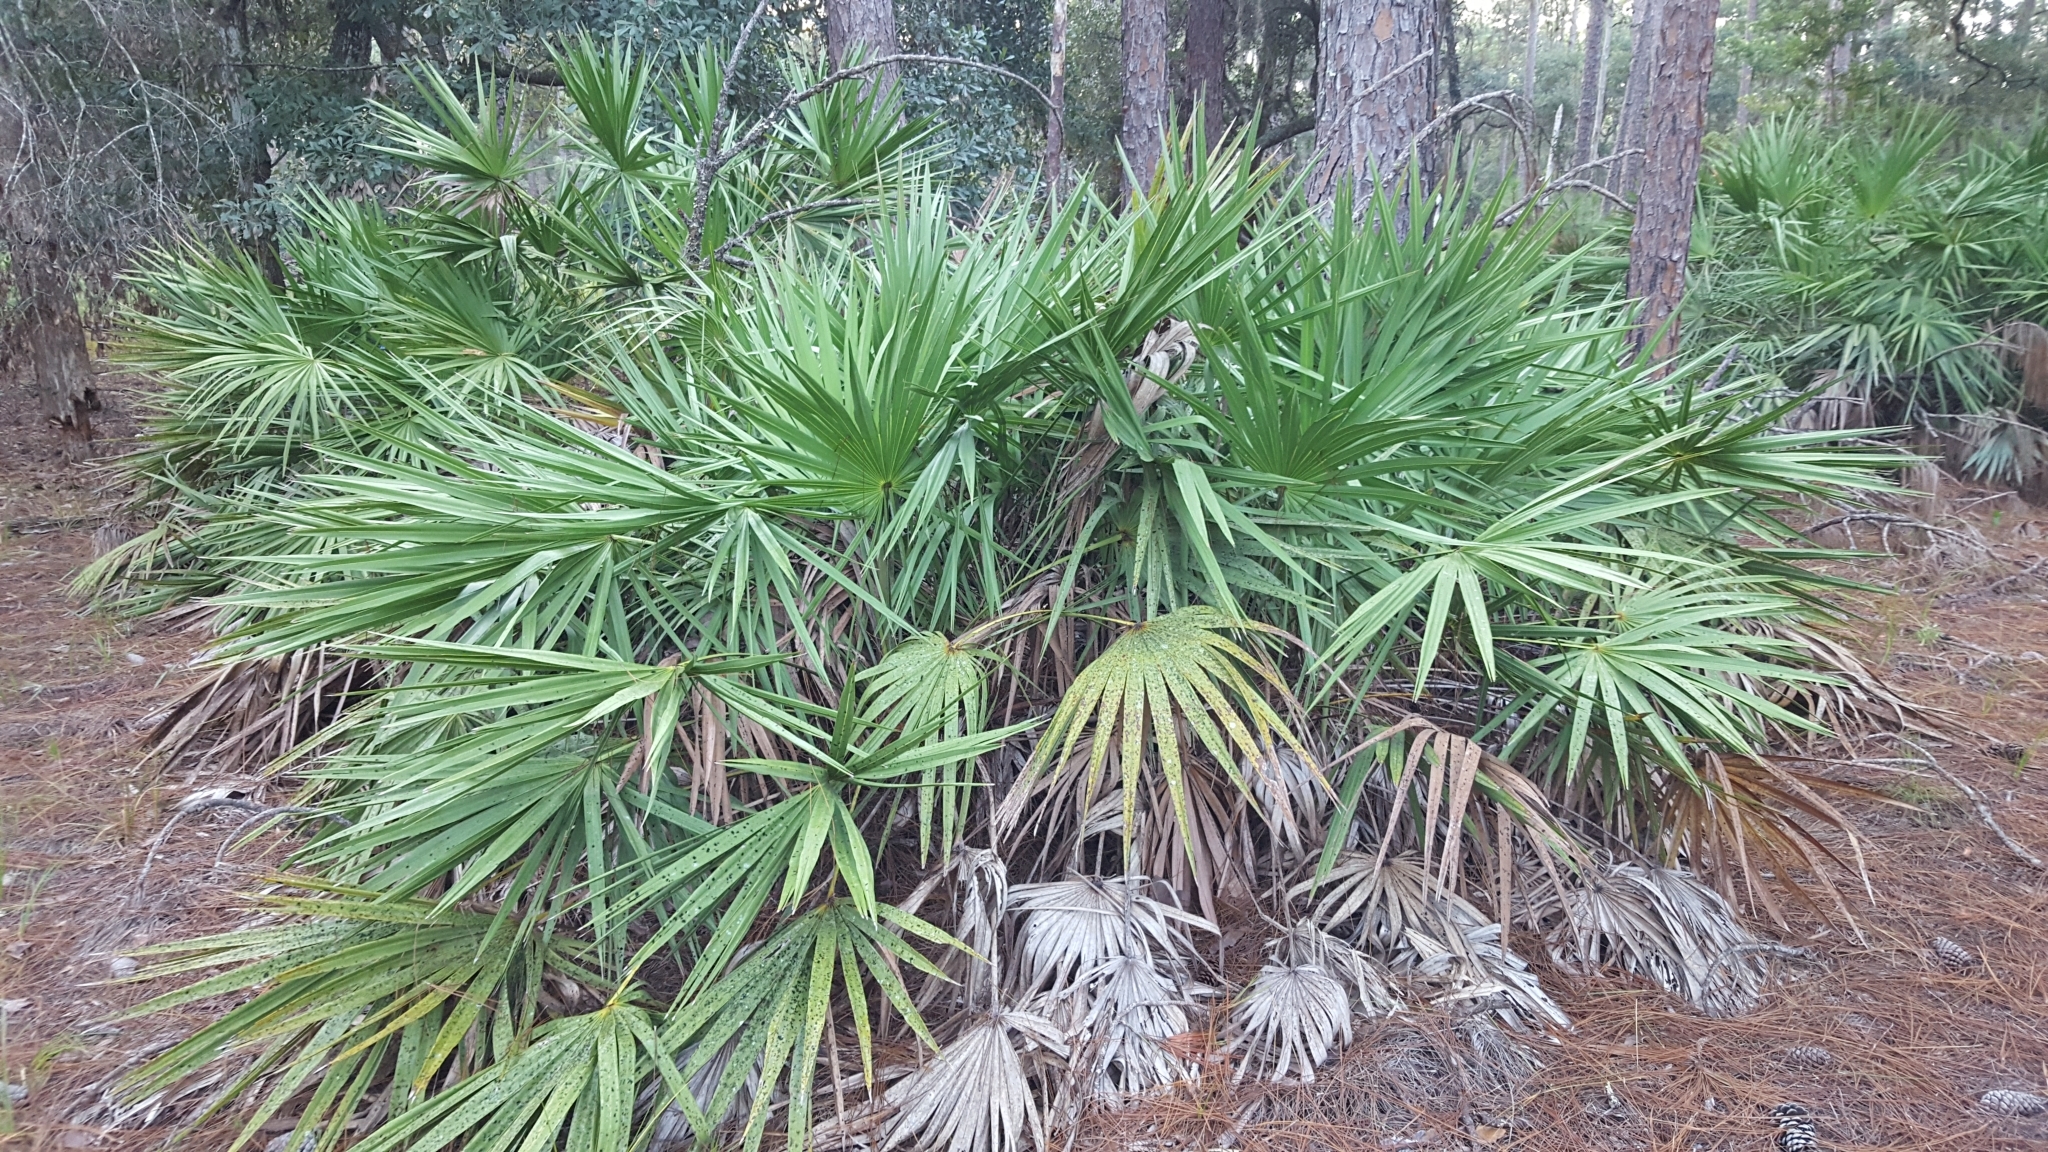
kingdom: Plantae
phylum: Tracheophyta
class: Liliopsida
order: Arecales
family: Arecaceae
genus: Serenoa
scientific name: Serenoa repens
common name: Saw-palmetto
